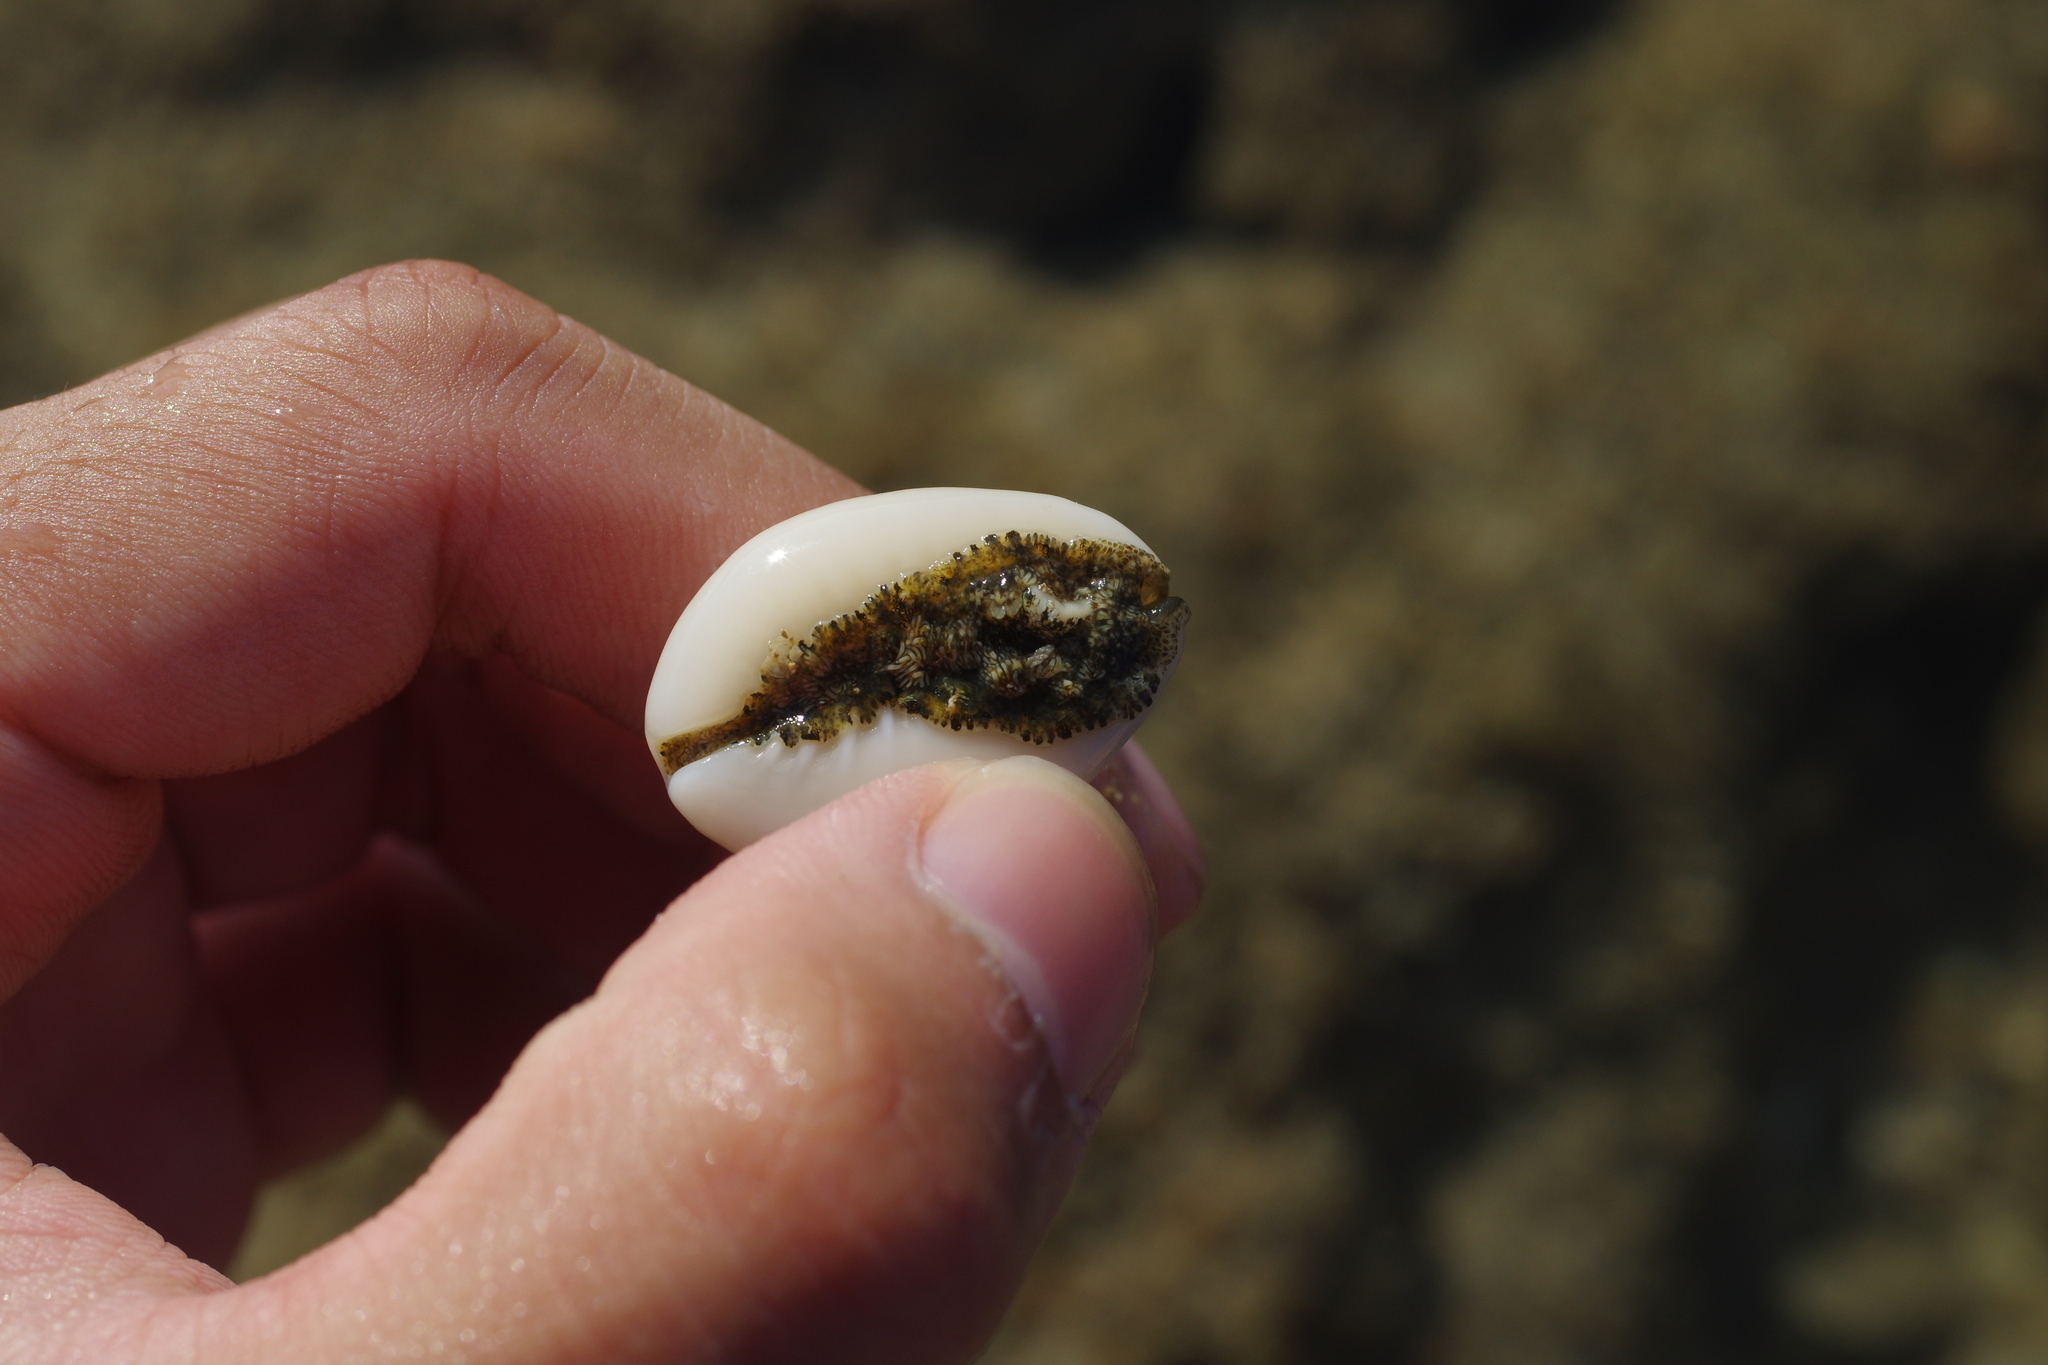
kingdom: Animalia
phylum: Mollusca
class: Gastropoda
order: Littorinimorpha
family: Cypraeidae
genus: Monetaria
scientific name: Monetaria annulus
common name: Ring cowrie
